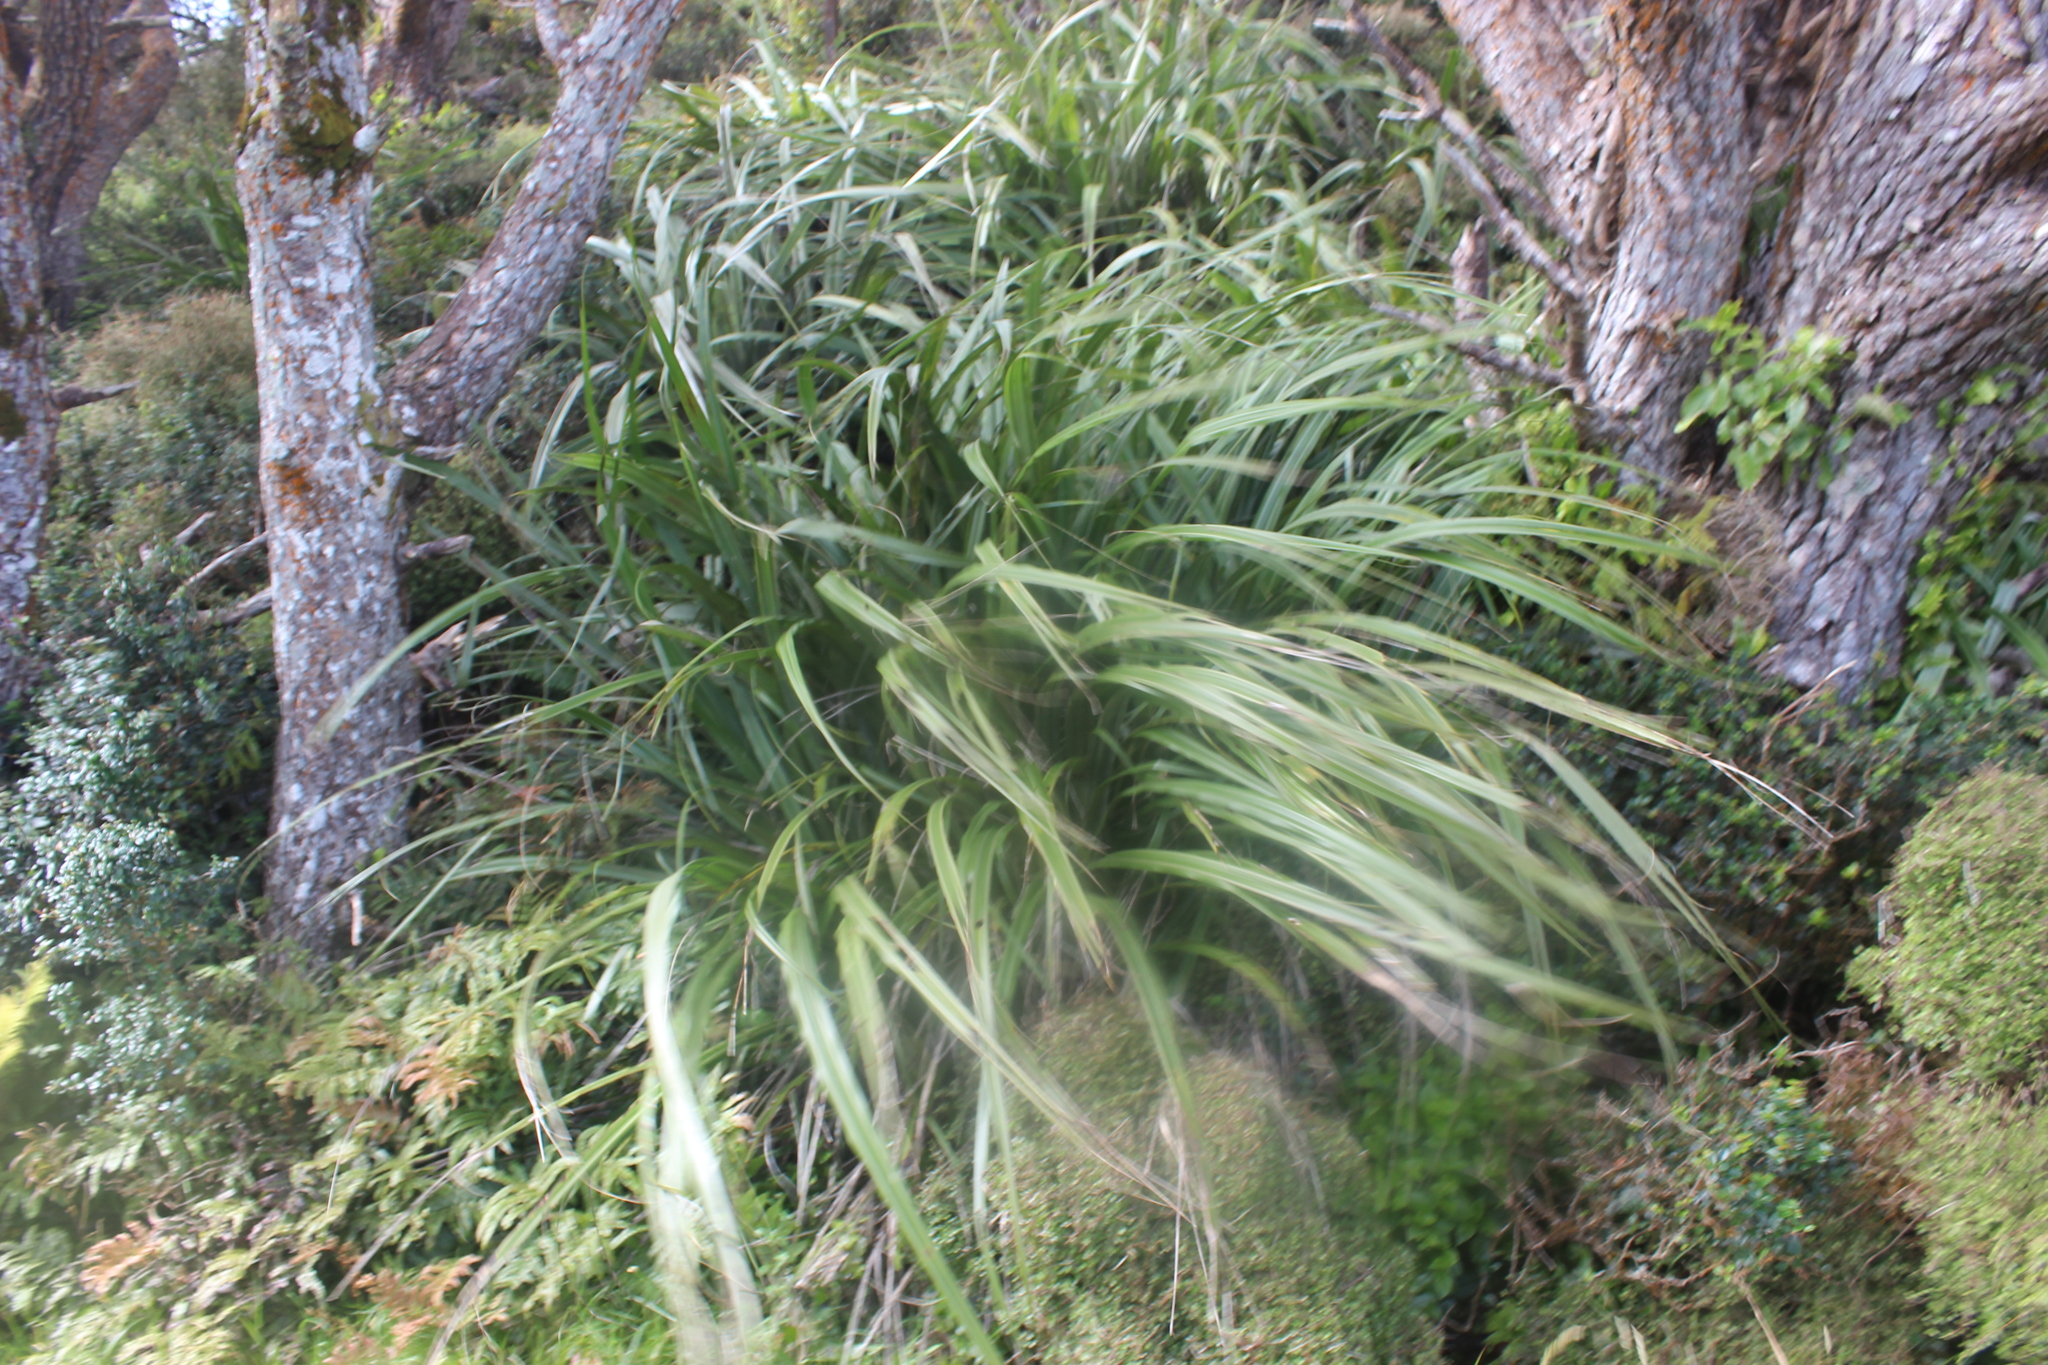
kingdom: Plantae
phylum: Tracheophyta
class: Liliopsida
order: Asparagales
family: Asteliaceae
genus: Astelia
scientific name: Astelia solandri
